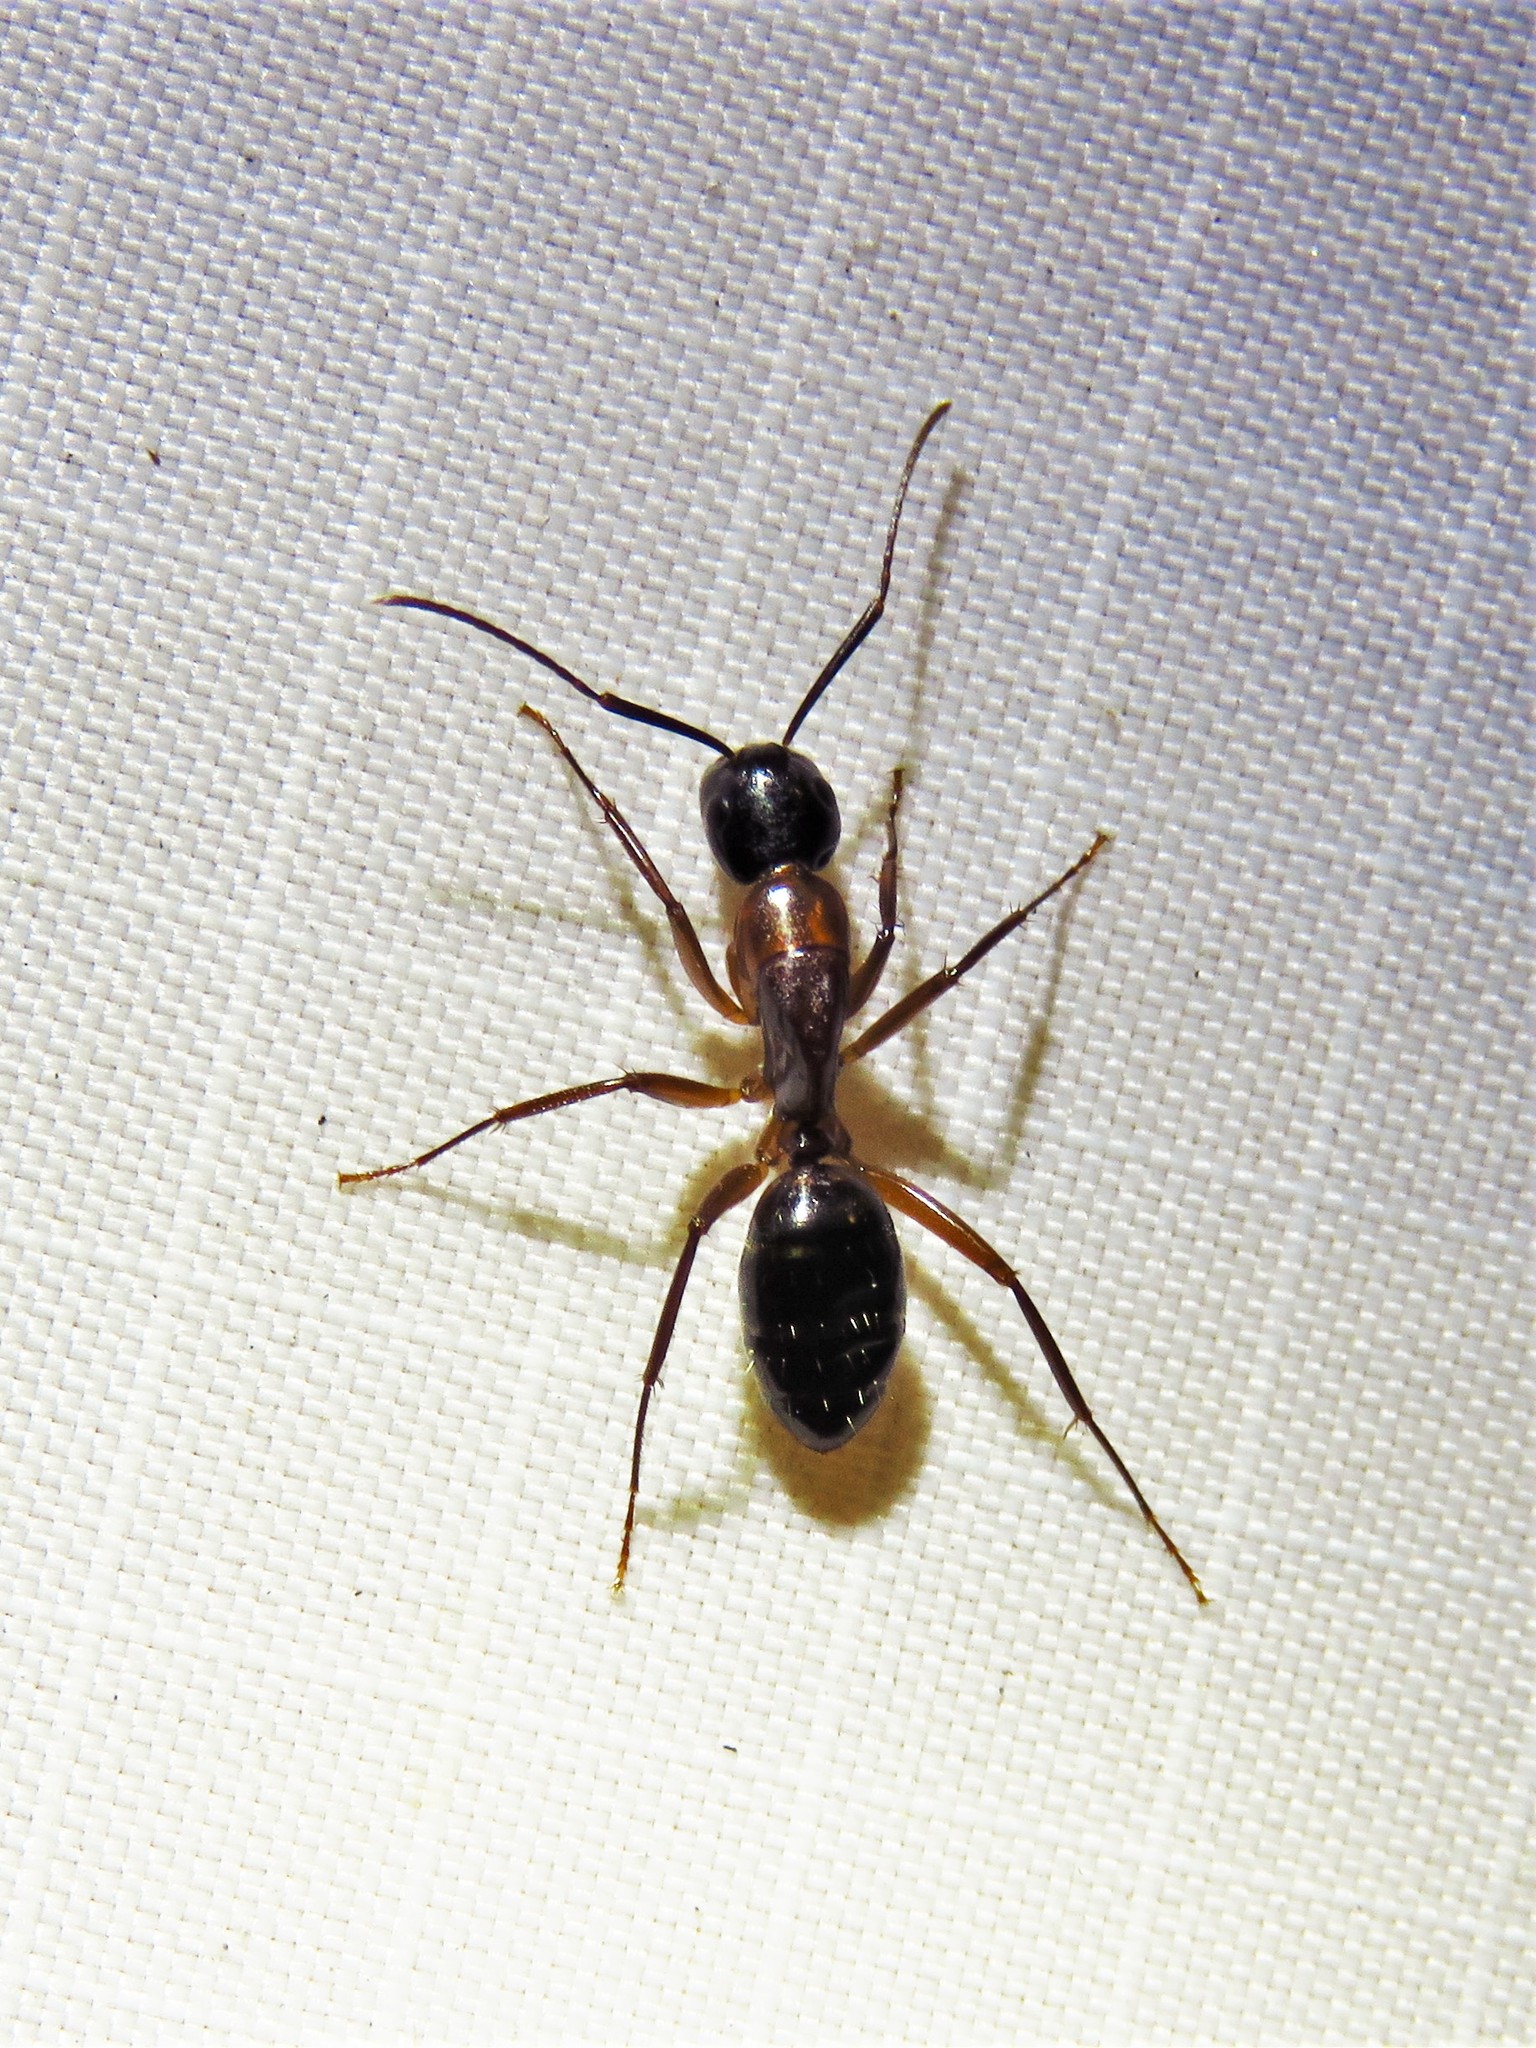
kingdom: Animalia
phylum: Arthropoda
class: Insecta
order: Hymenoptera
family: Formicidae
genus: Camponotus
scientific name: Camponotus texanus
